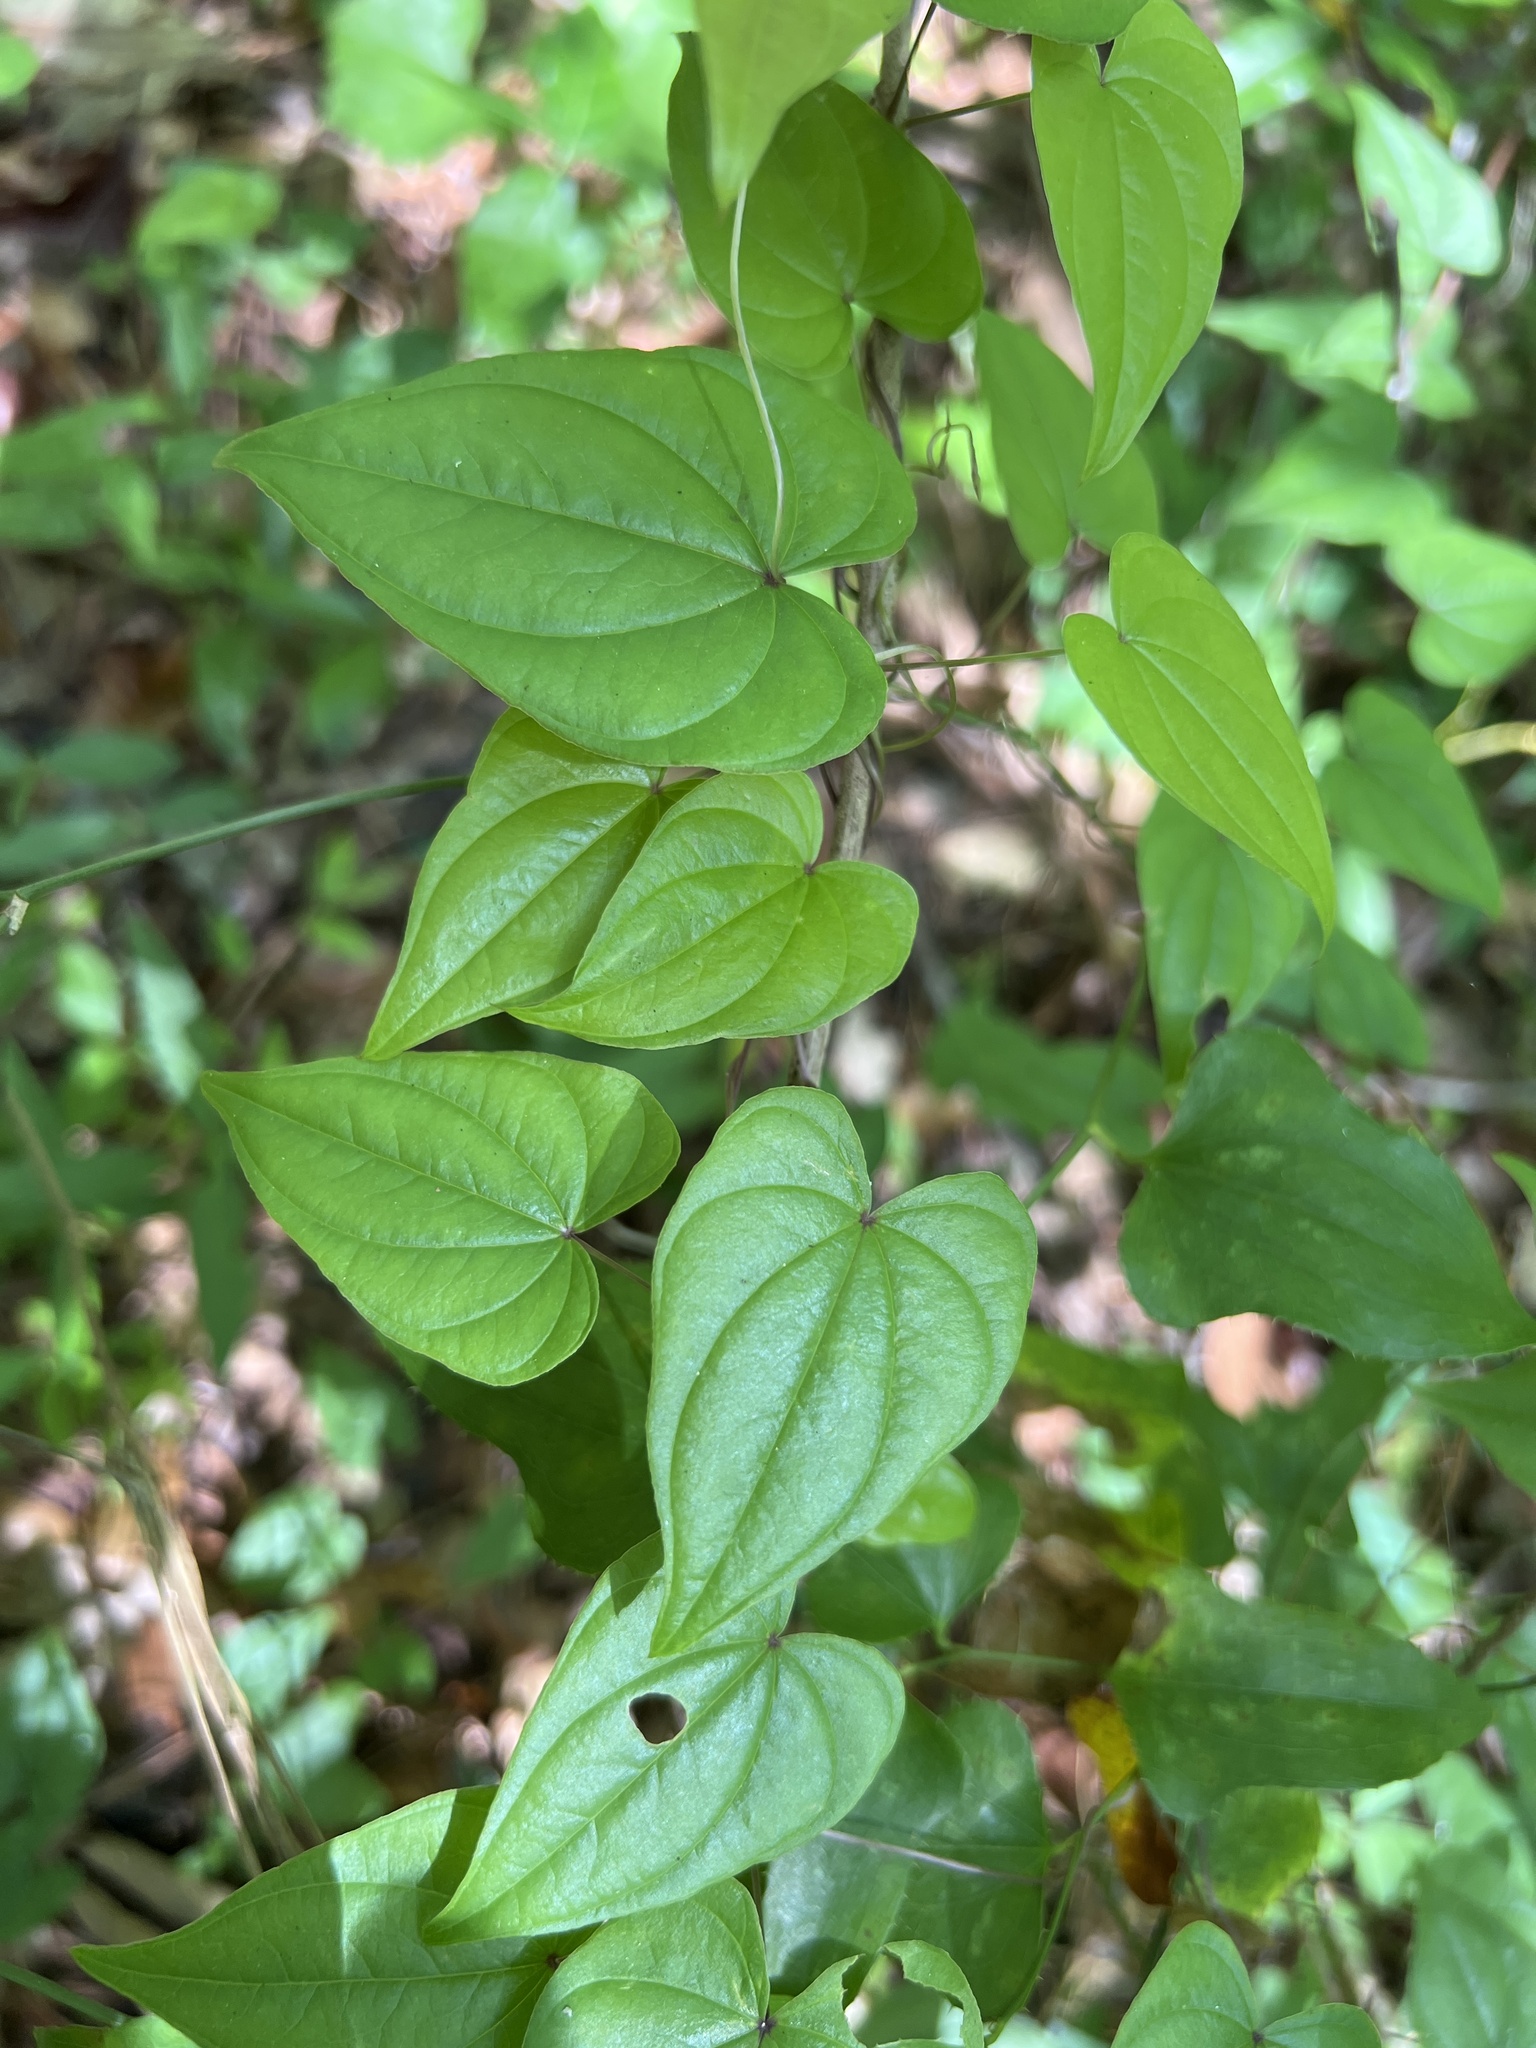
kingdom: Plantae
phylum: Tracheophyta
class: Liliopsida
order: Dioscoreales
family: Dioscoreaceae
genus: Dioscorea
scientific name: Dioscorea floridana
